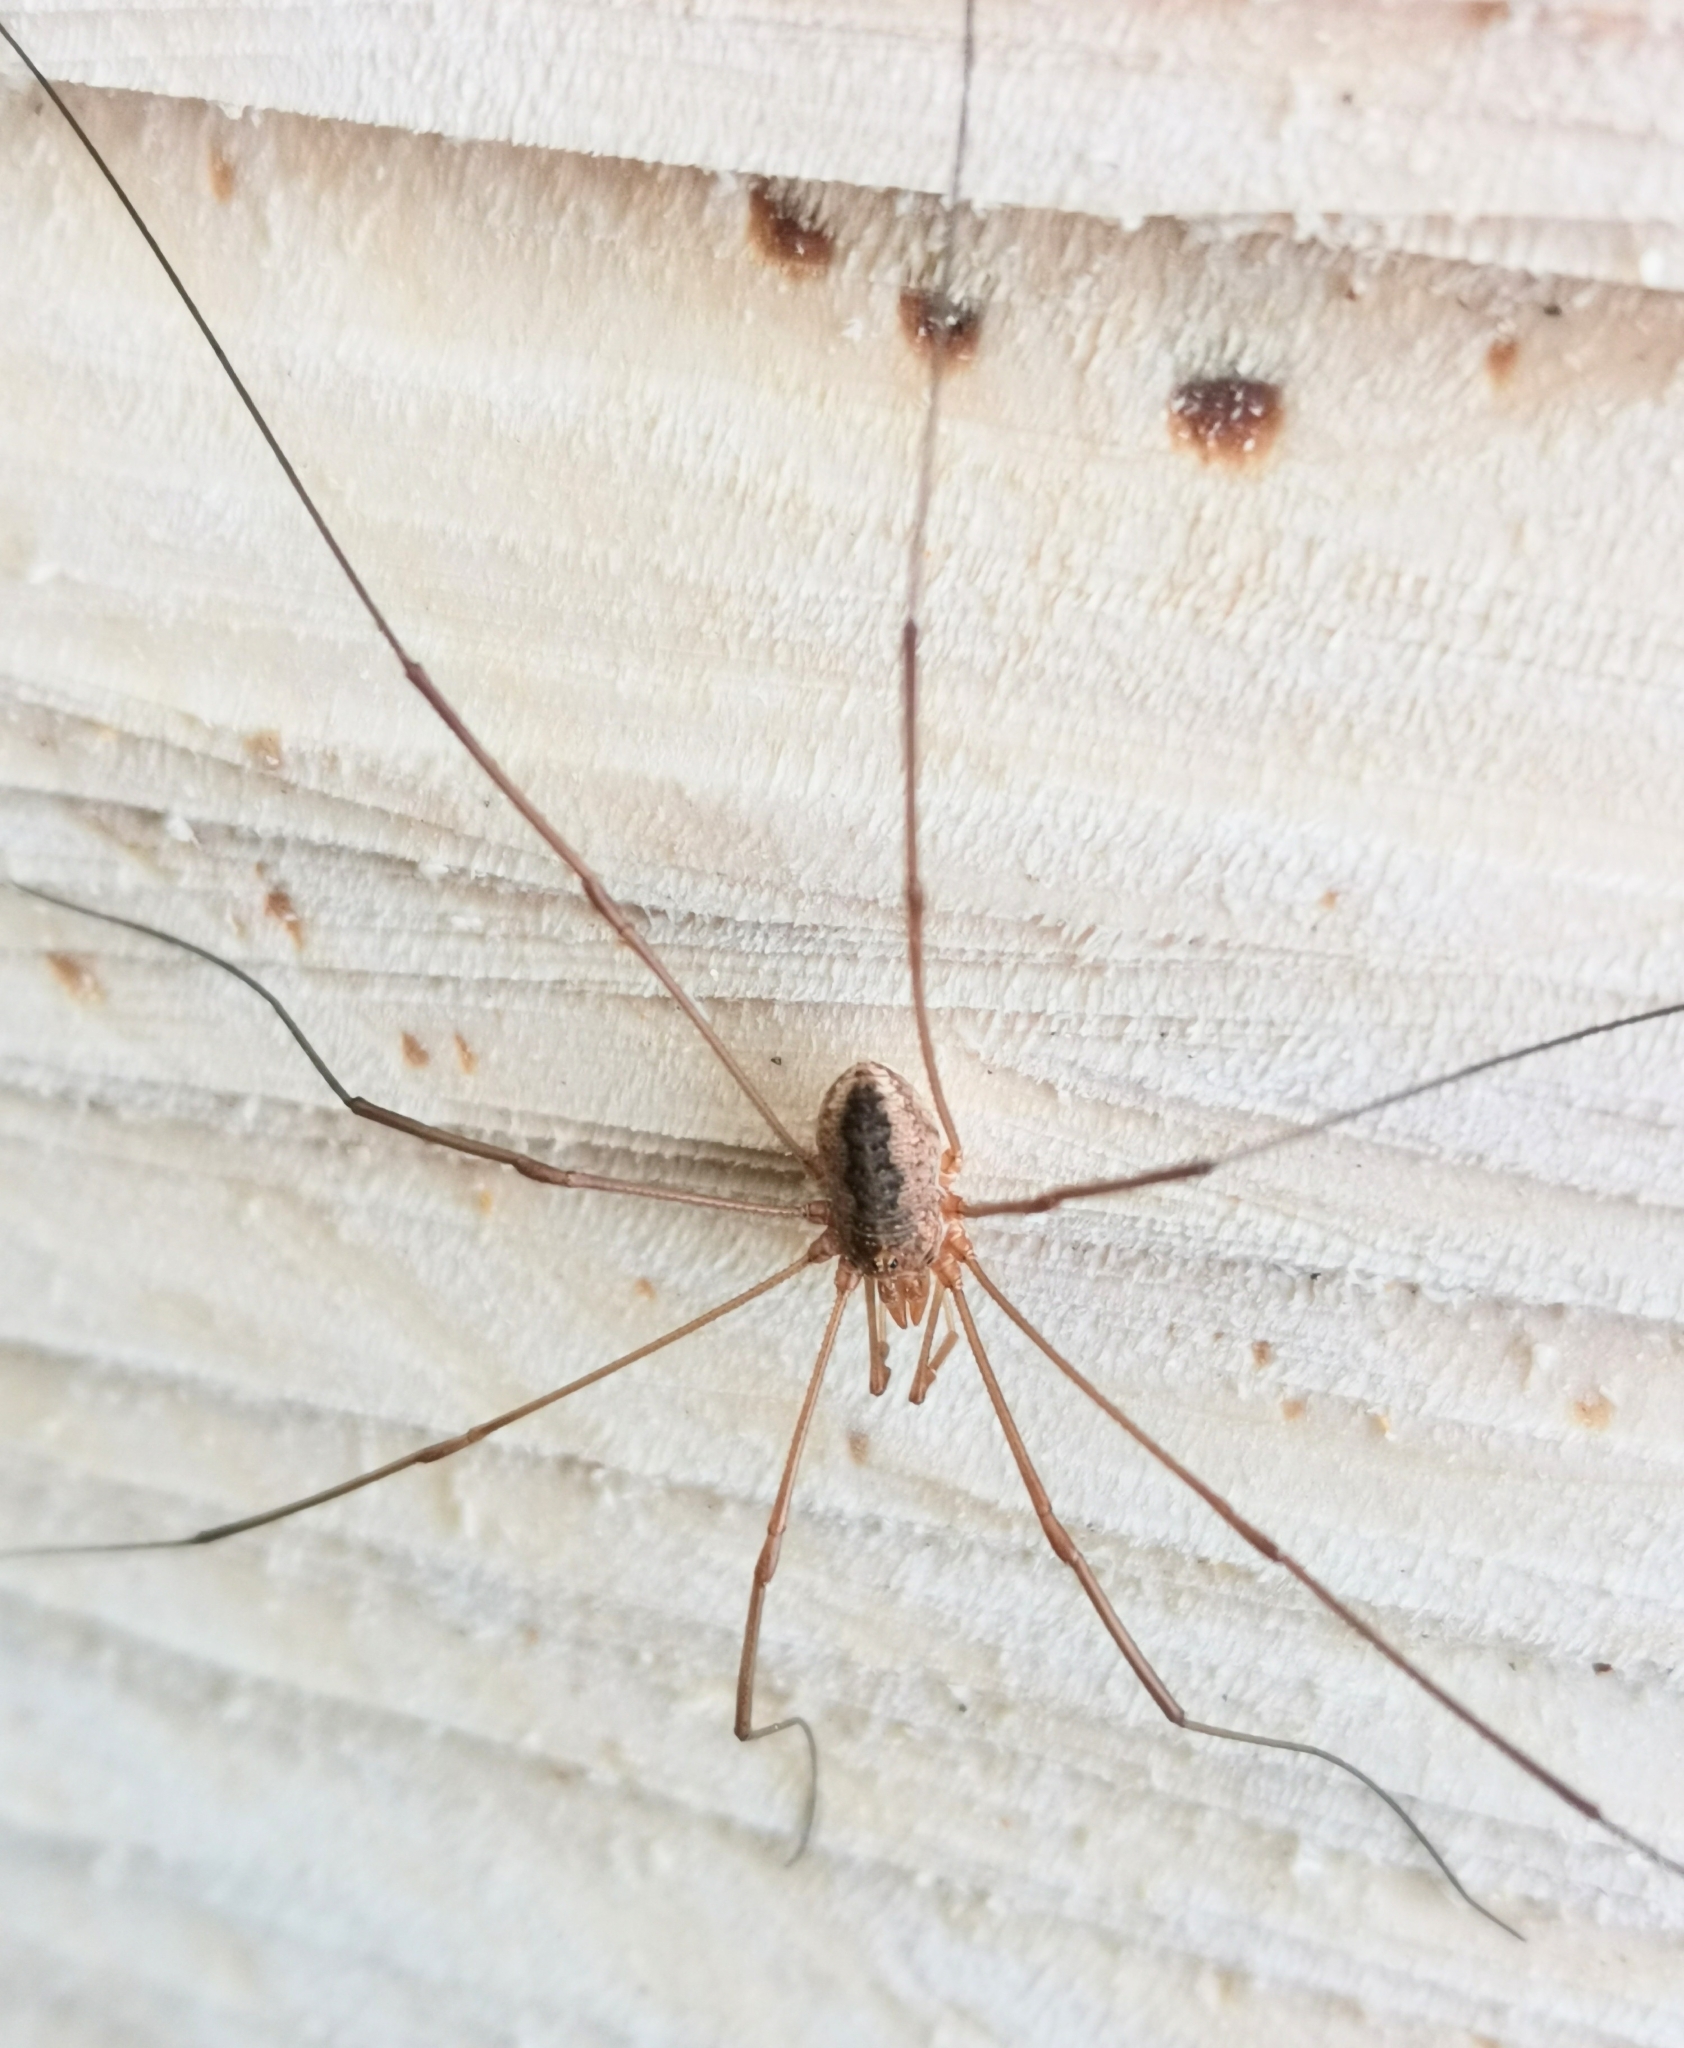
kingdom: Animalia
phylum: Arthropoda
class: Arachnida
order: Opiliones
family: Phalangiidae
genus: Phalangium
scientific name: Phalangium opilio
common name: Daddy longleg
